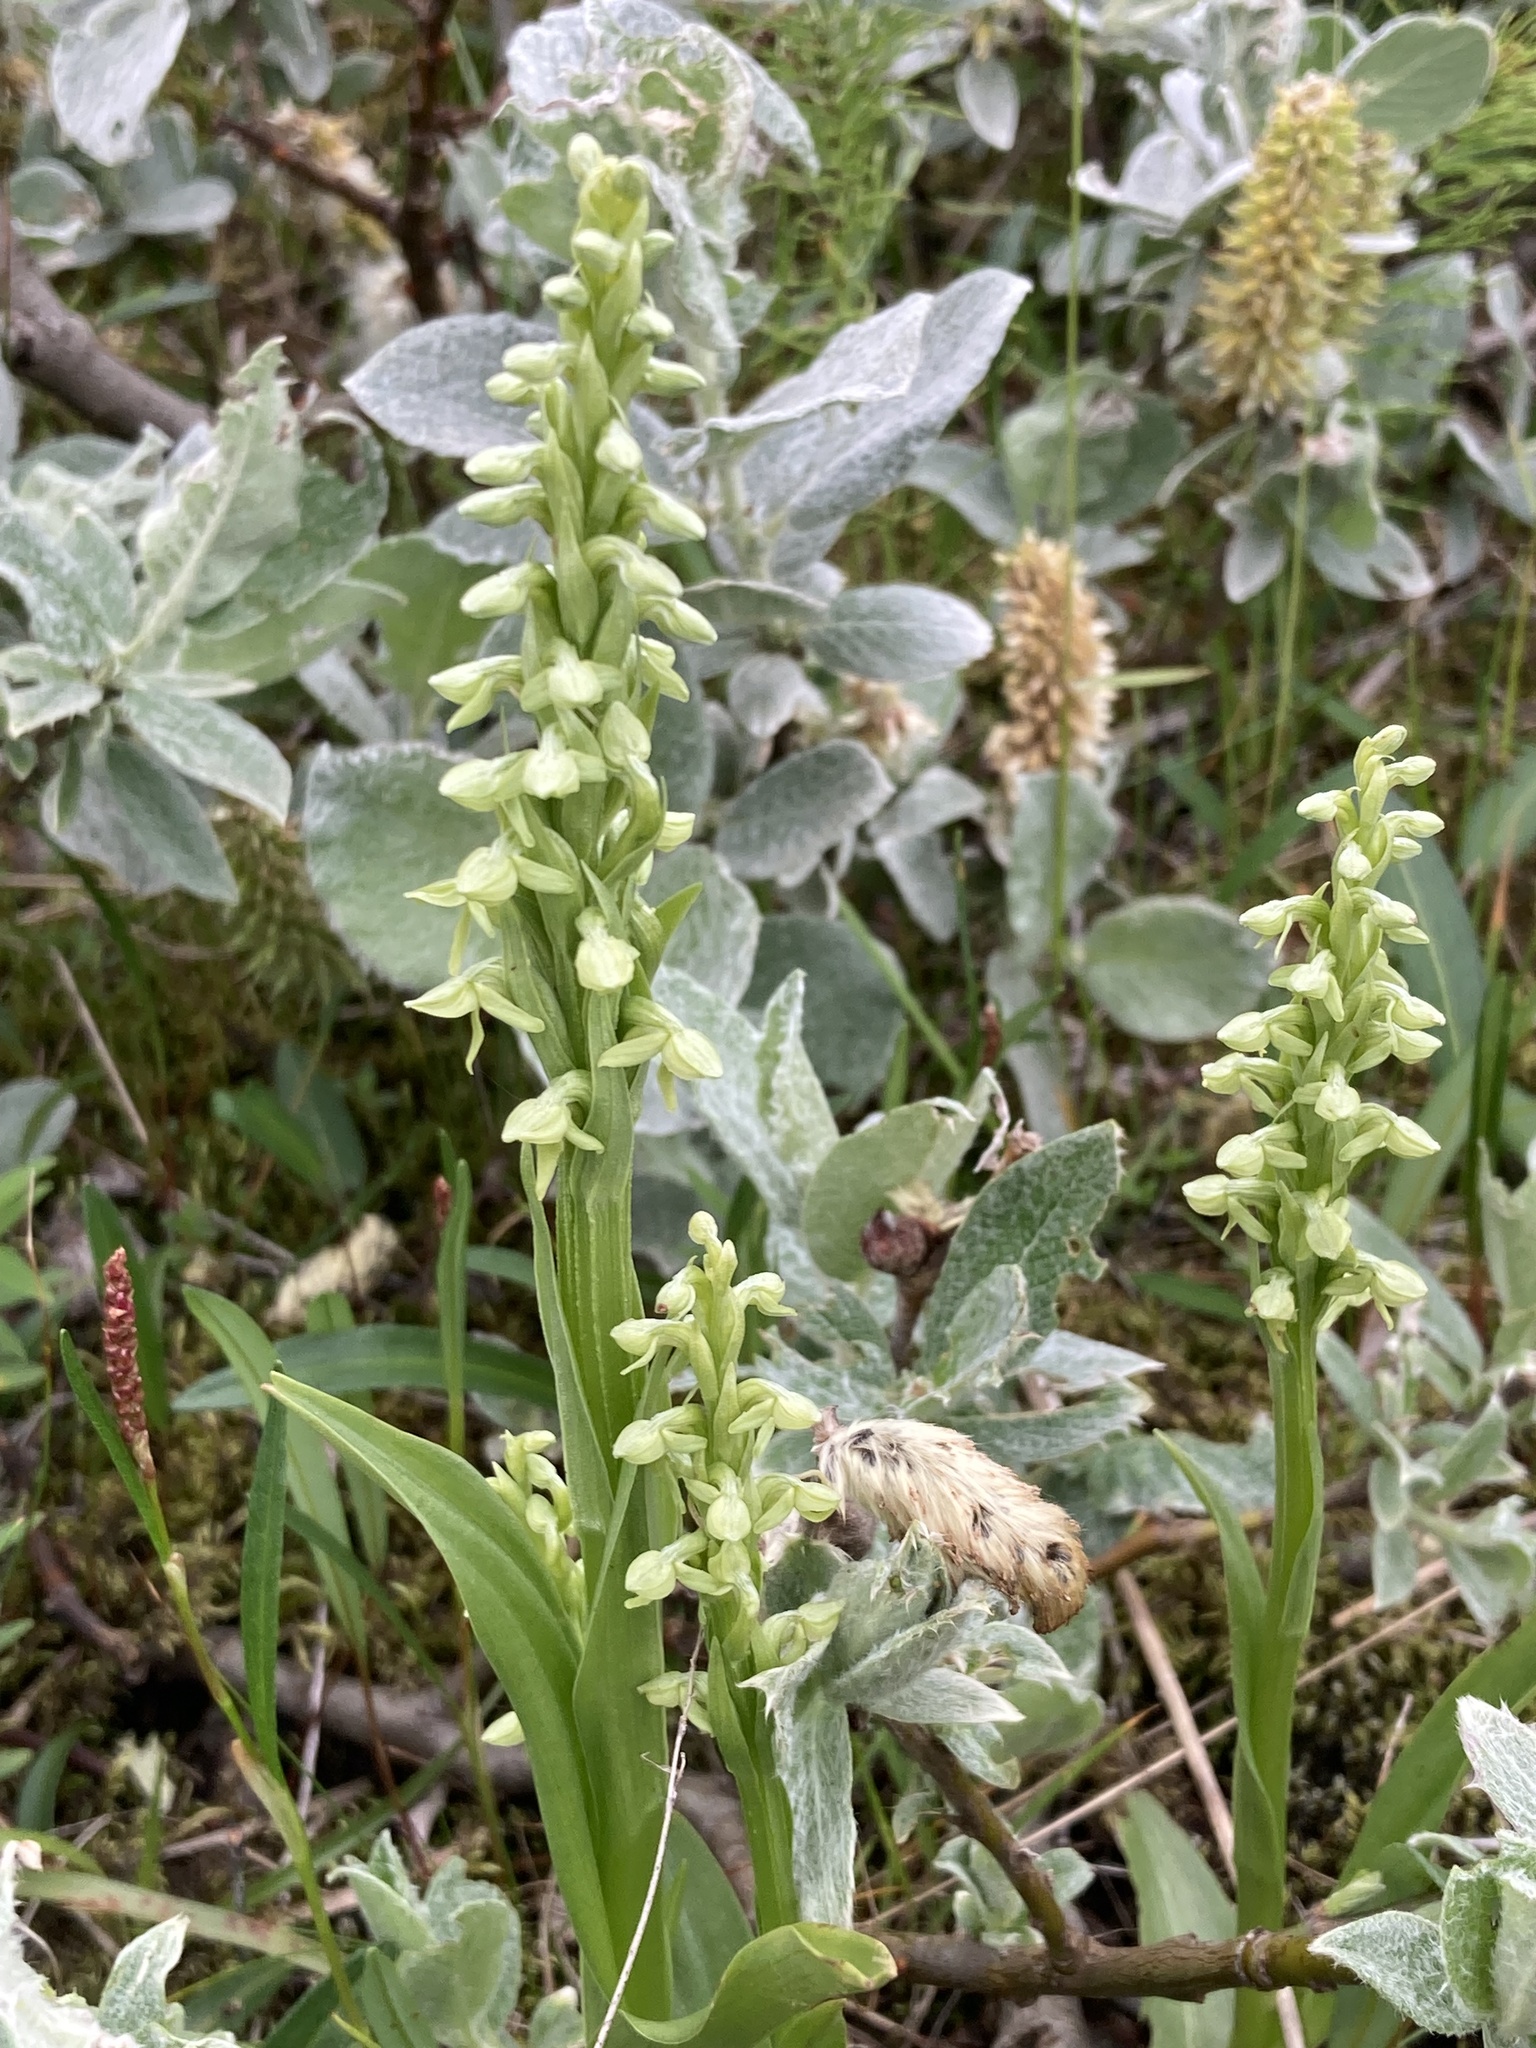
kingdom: Plantae
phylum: Tracheophyta
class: Liliopsida
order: Asparagales
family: Orchidaceae
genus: Platanthera
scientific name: Platanthera hyperborea
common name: Northern green orchid
